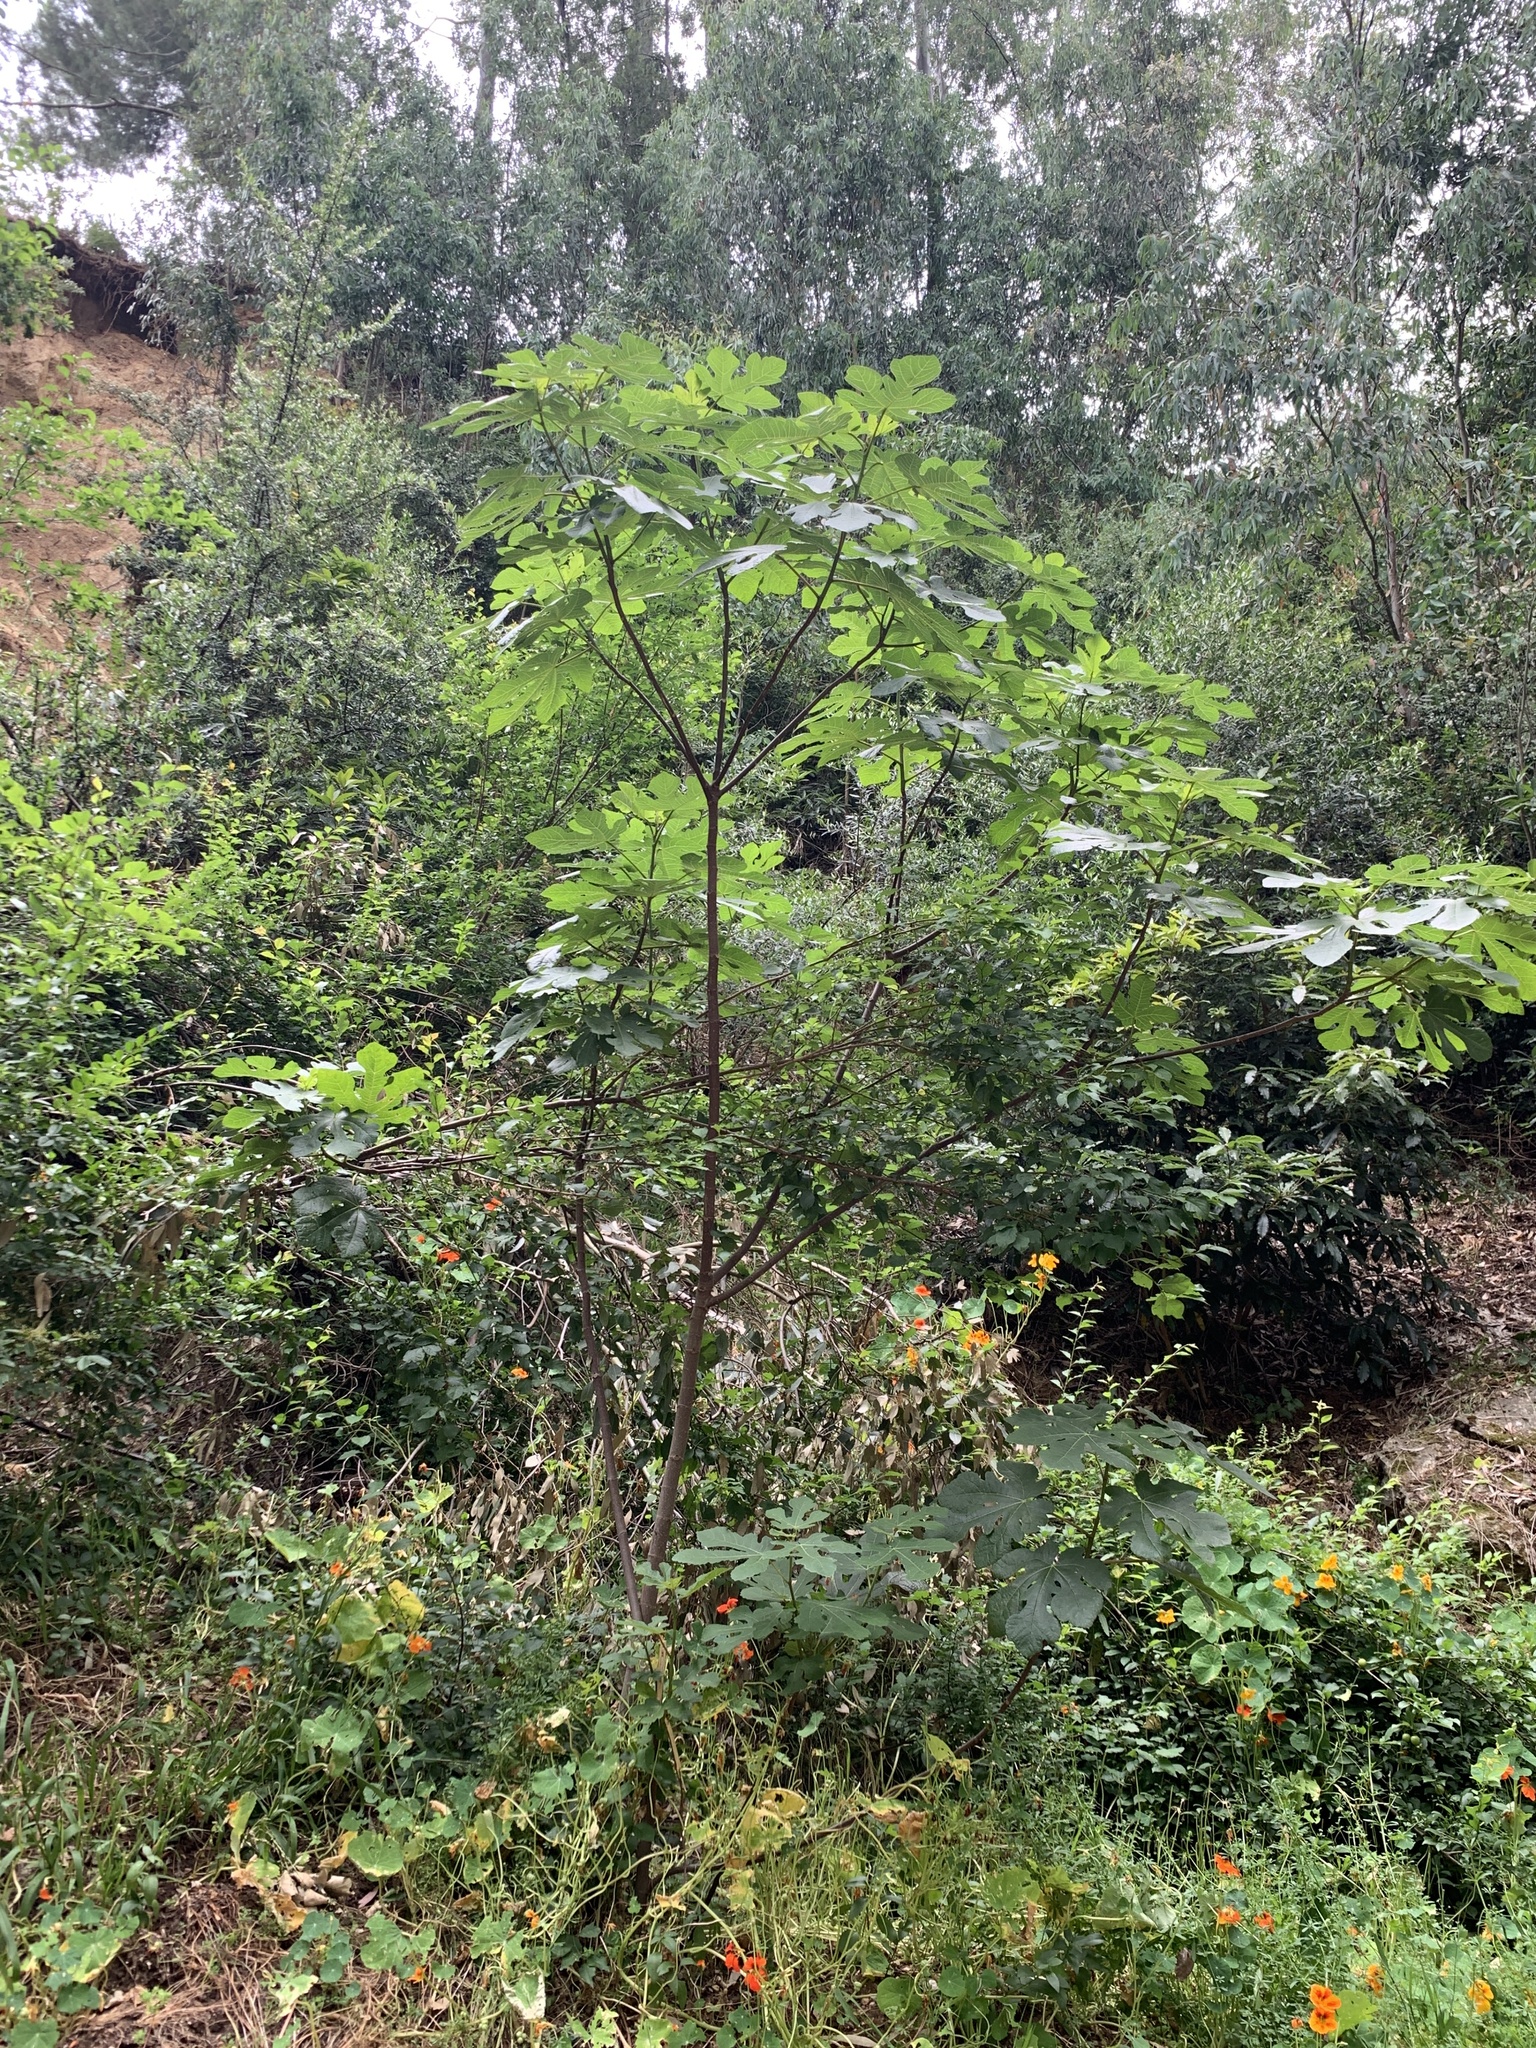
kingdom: Plantae
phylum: Tracheophyta
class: Magnoliopsida
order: Rosales
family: Moraceae
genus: Ficus
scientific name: Ficus carica
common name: Fig
